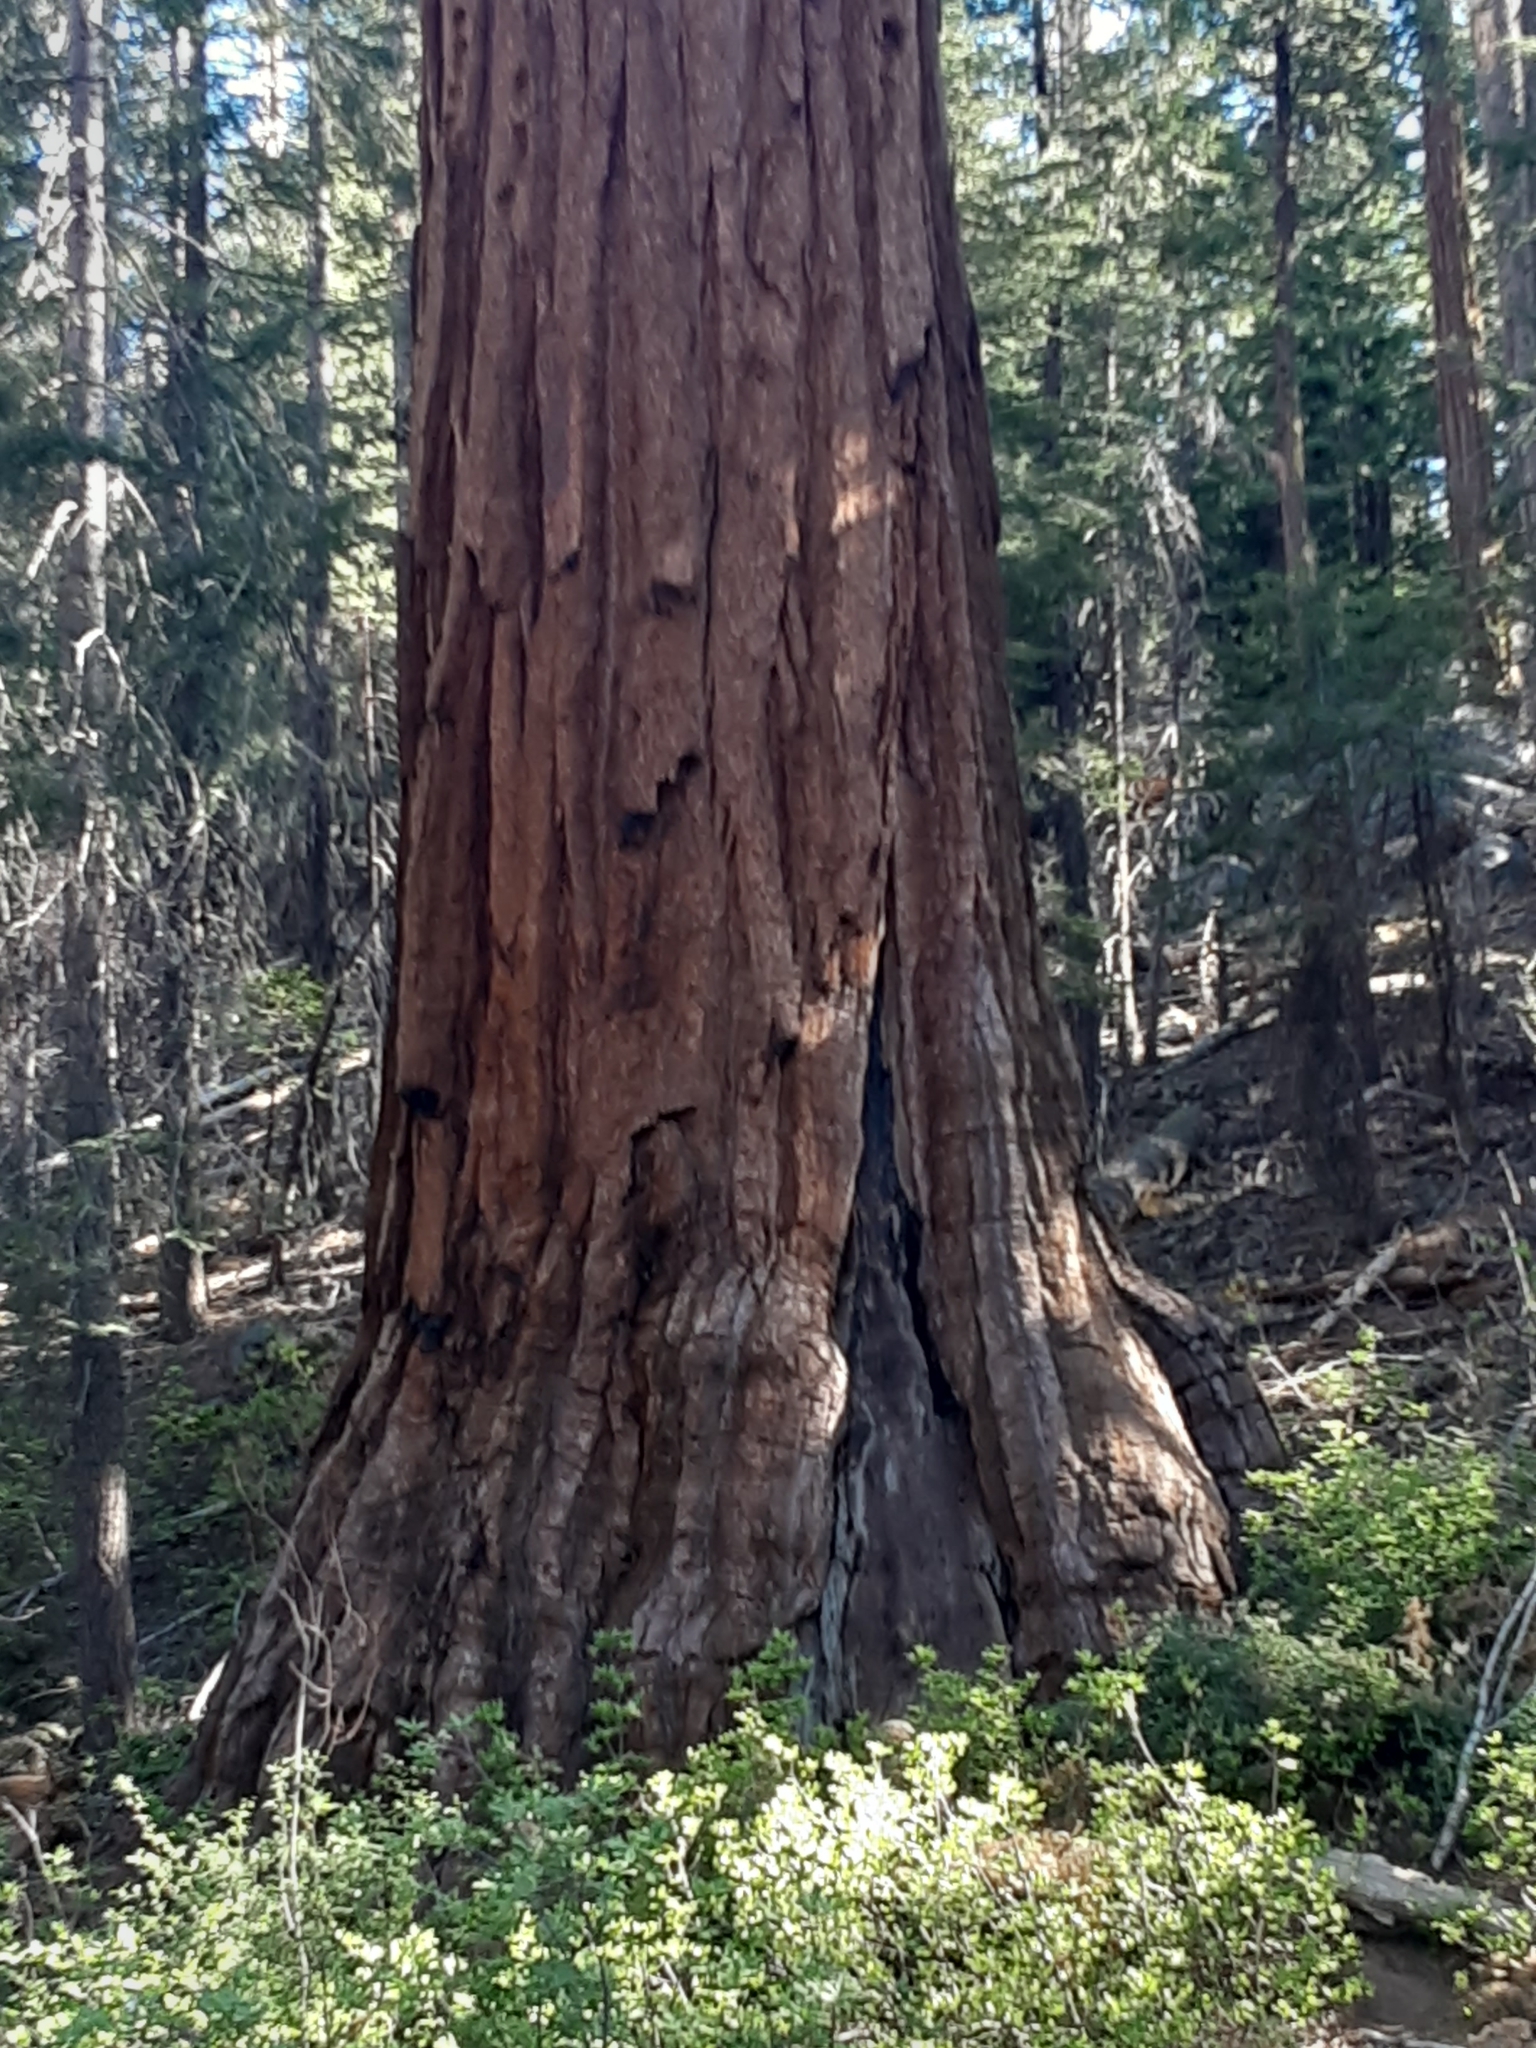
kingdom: Plantae
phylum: Tracheophyta
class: Pinopsida
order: Pinales
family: Cupressaceae
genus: Sequoiadendron
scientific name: Sequoiadendron giganteum
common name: Wellingtonia
